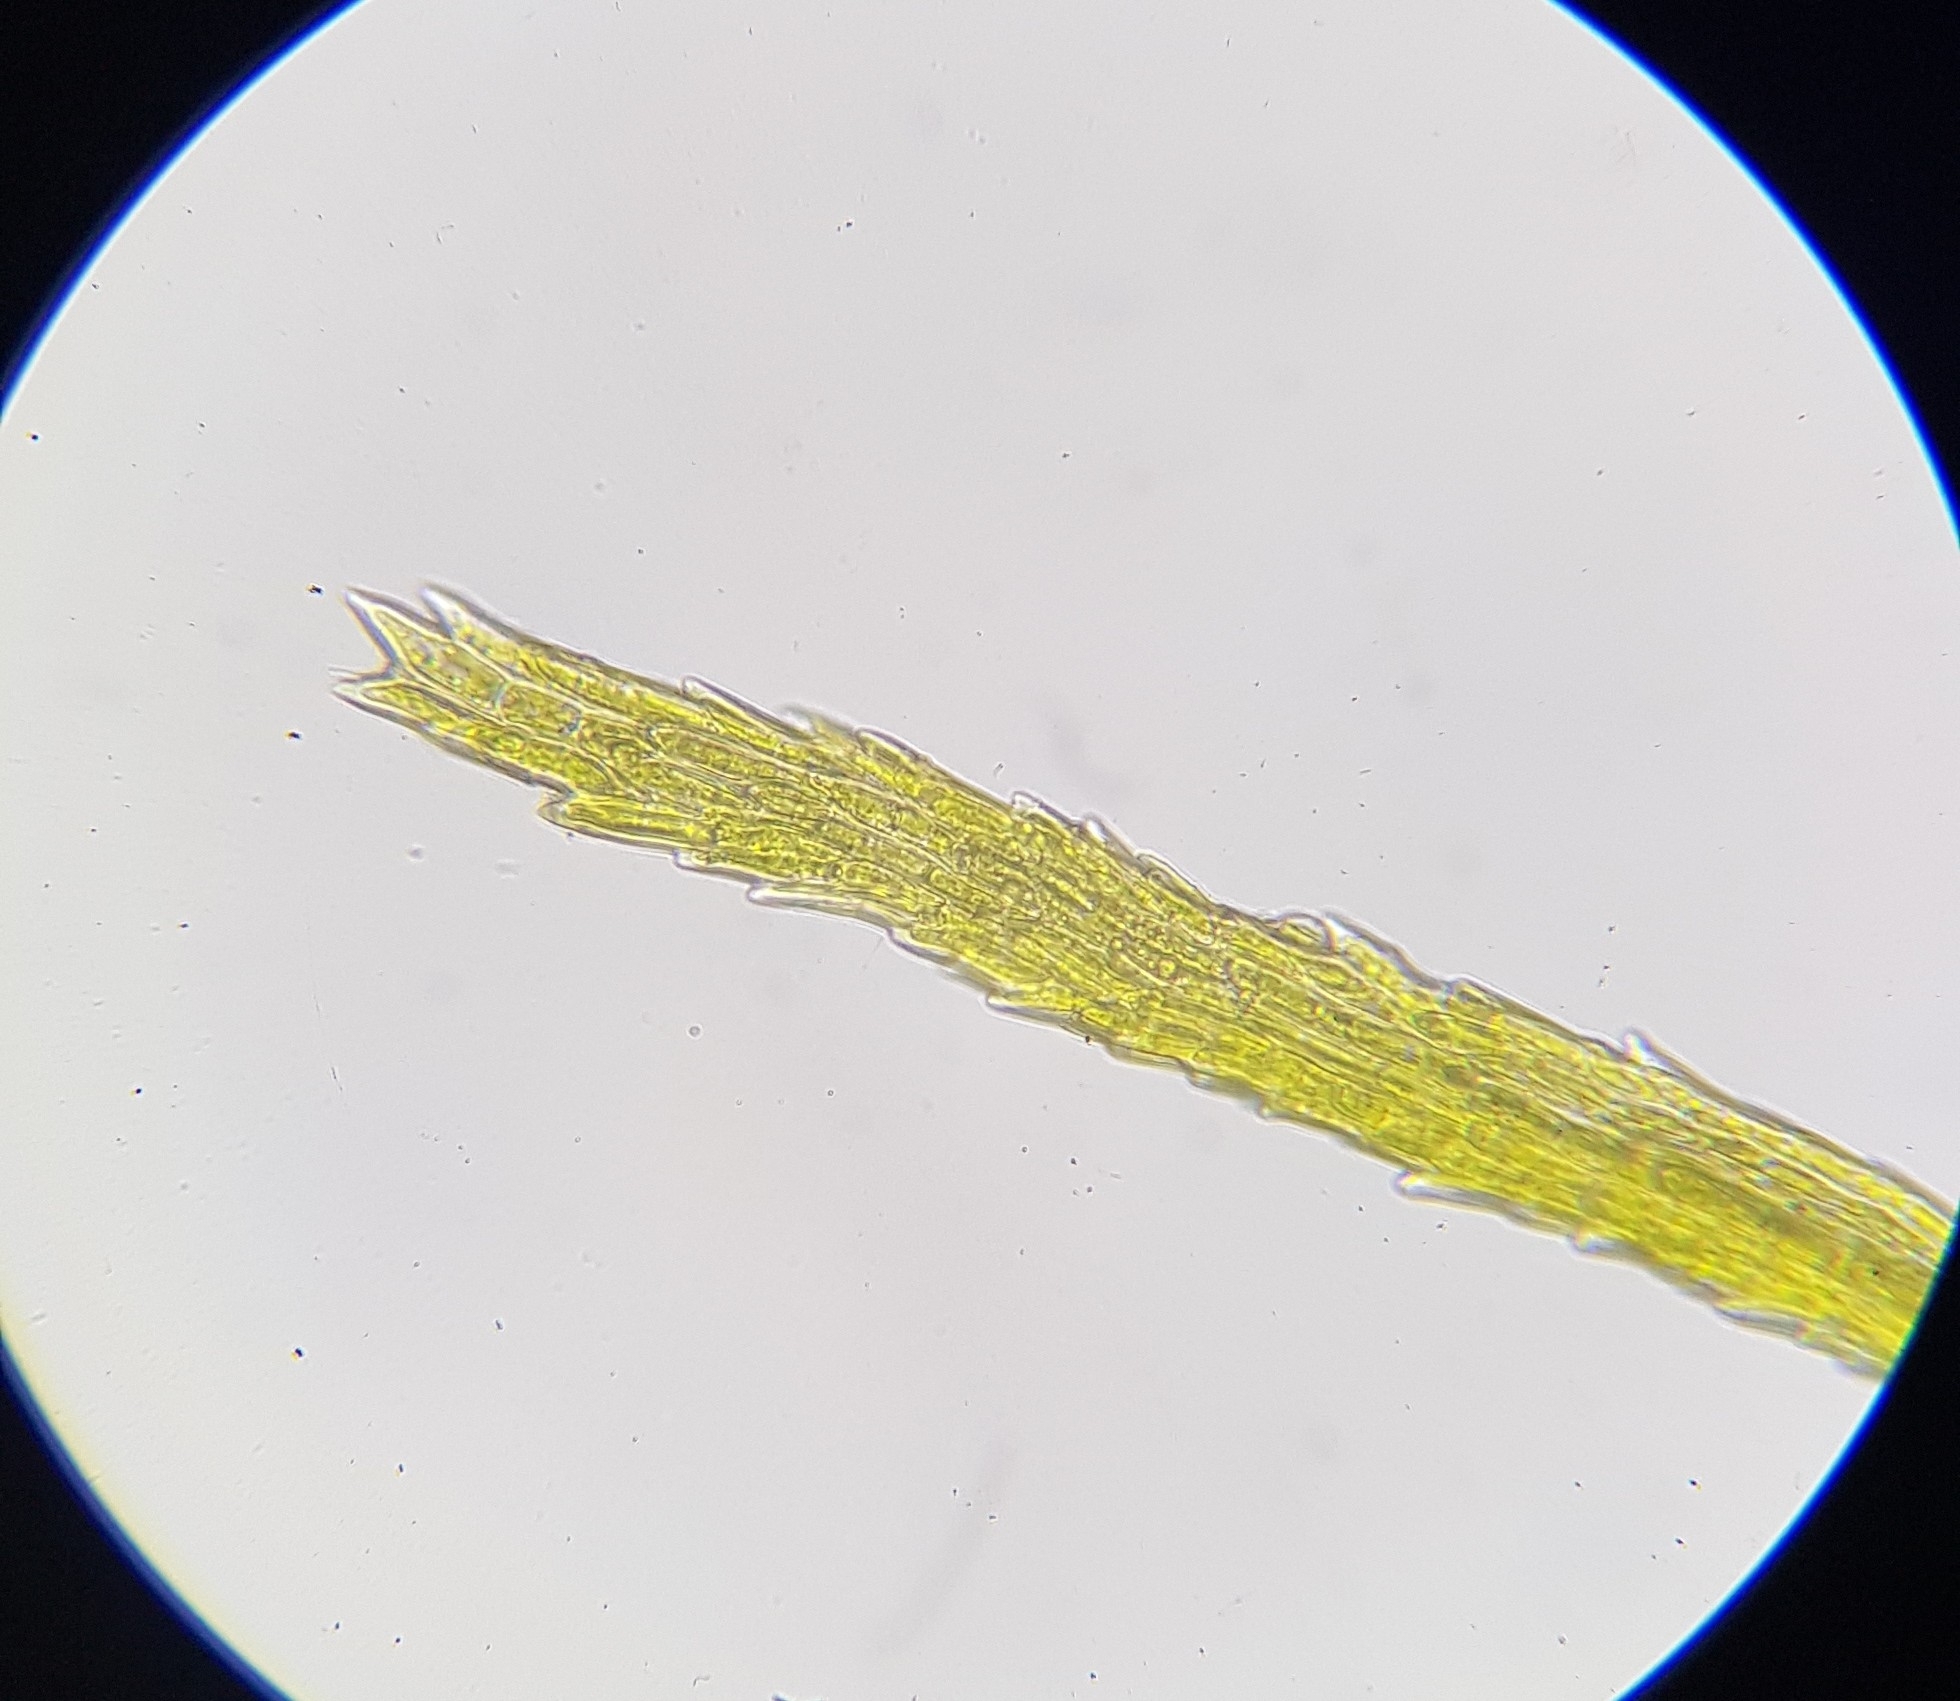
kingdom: Plantae
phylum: Bryophyta
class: Bryopsida
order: Dicranales
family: Leucobryaceae
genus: Dicranodontium
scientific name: Dicranodontium denudatum
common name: Beaked bow moss
